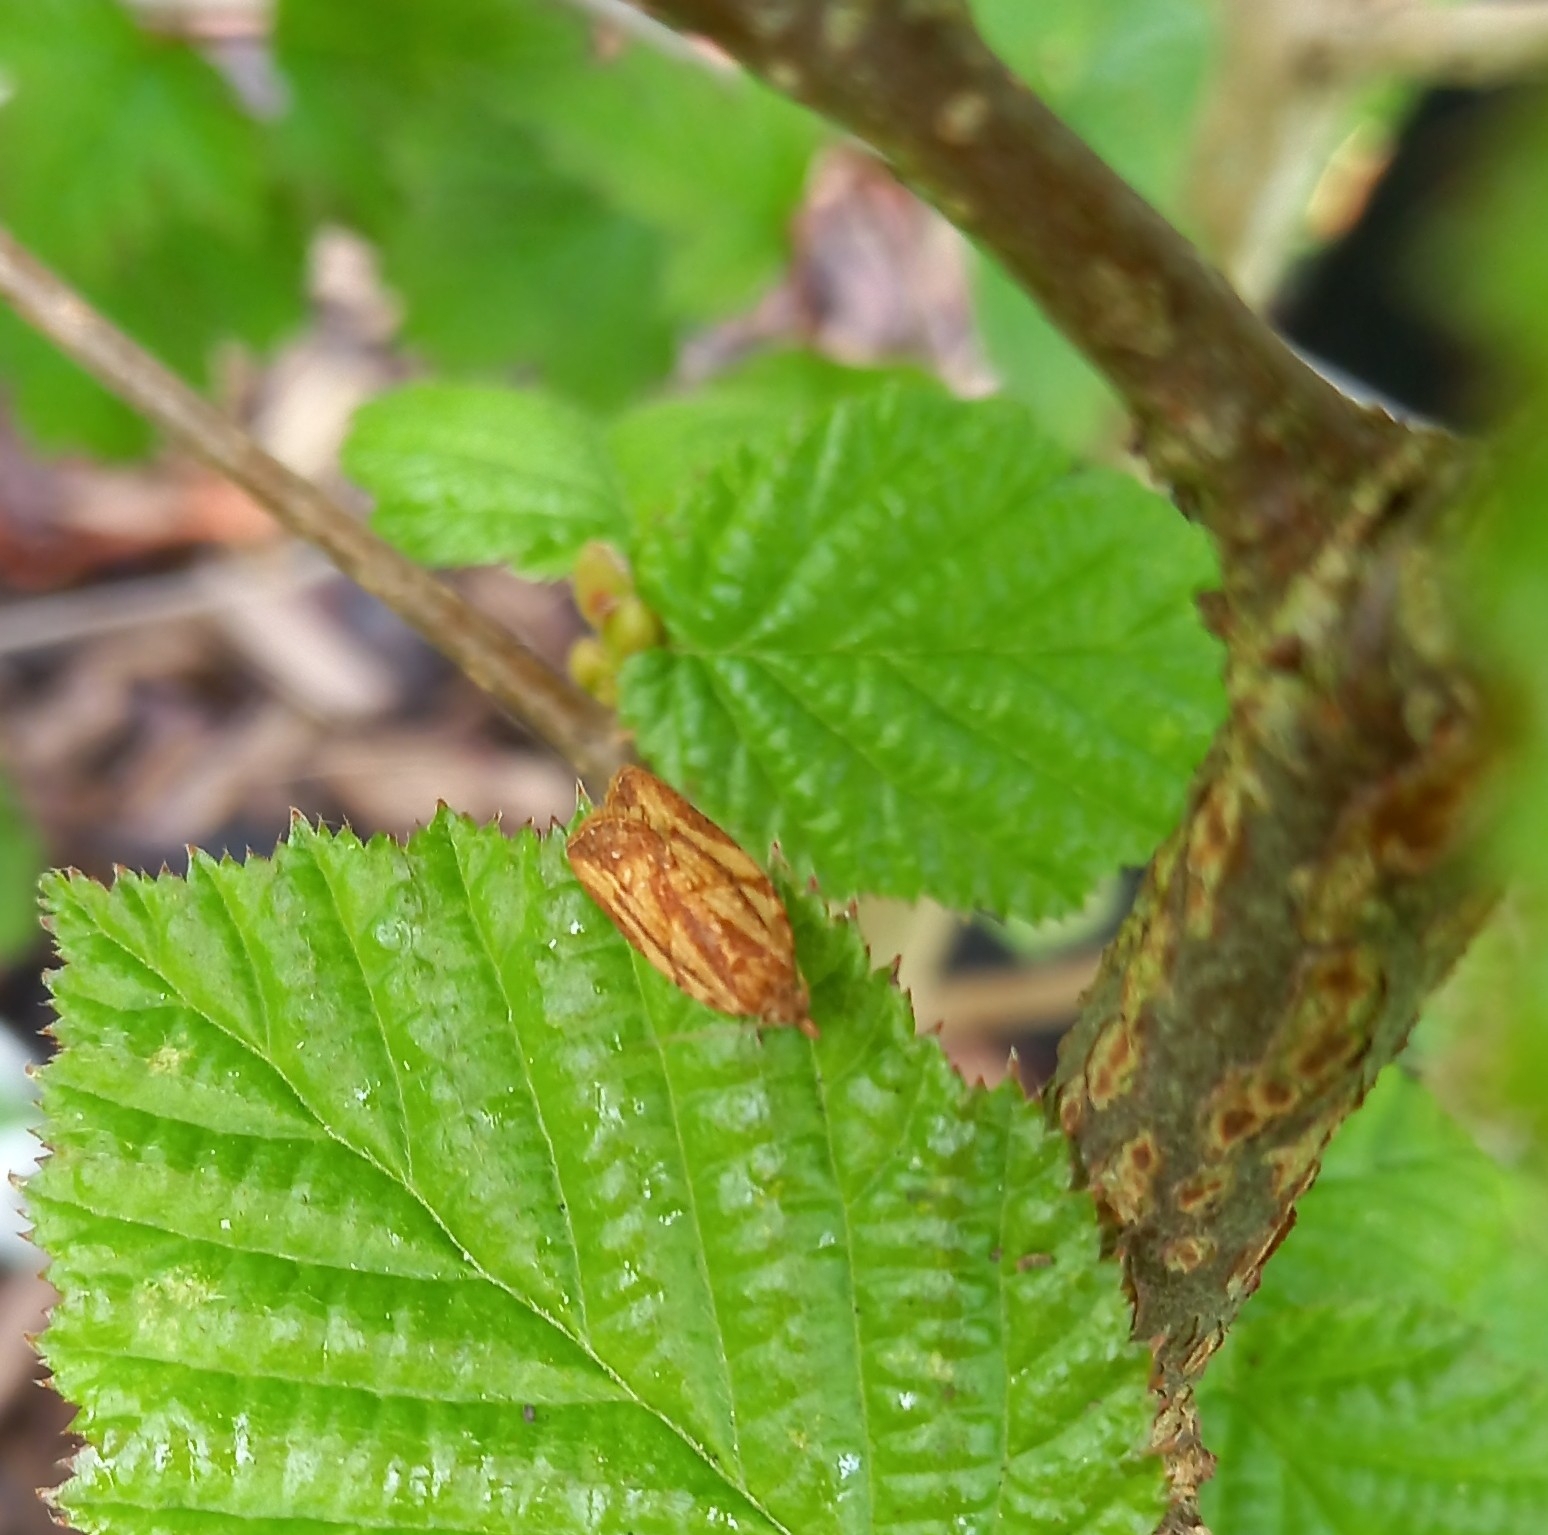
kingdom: Animalia
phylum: Arthropoda
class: Insecta
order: Lepidoptera
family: Tortricidae
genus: Epiphyas
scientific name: Epiphyas postvittana
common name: Light brown apple moth
